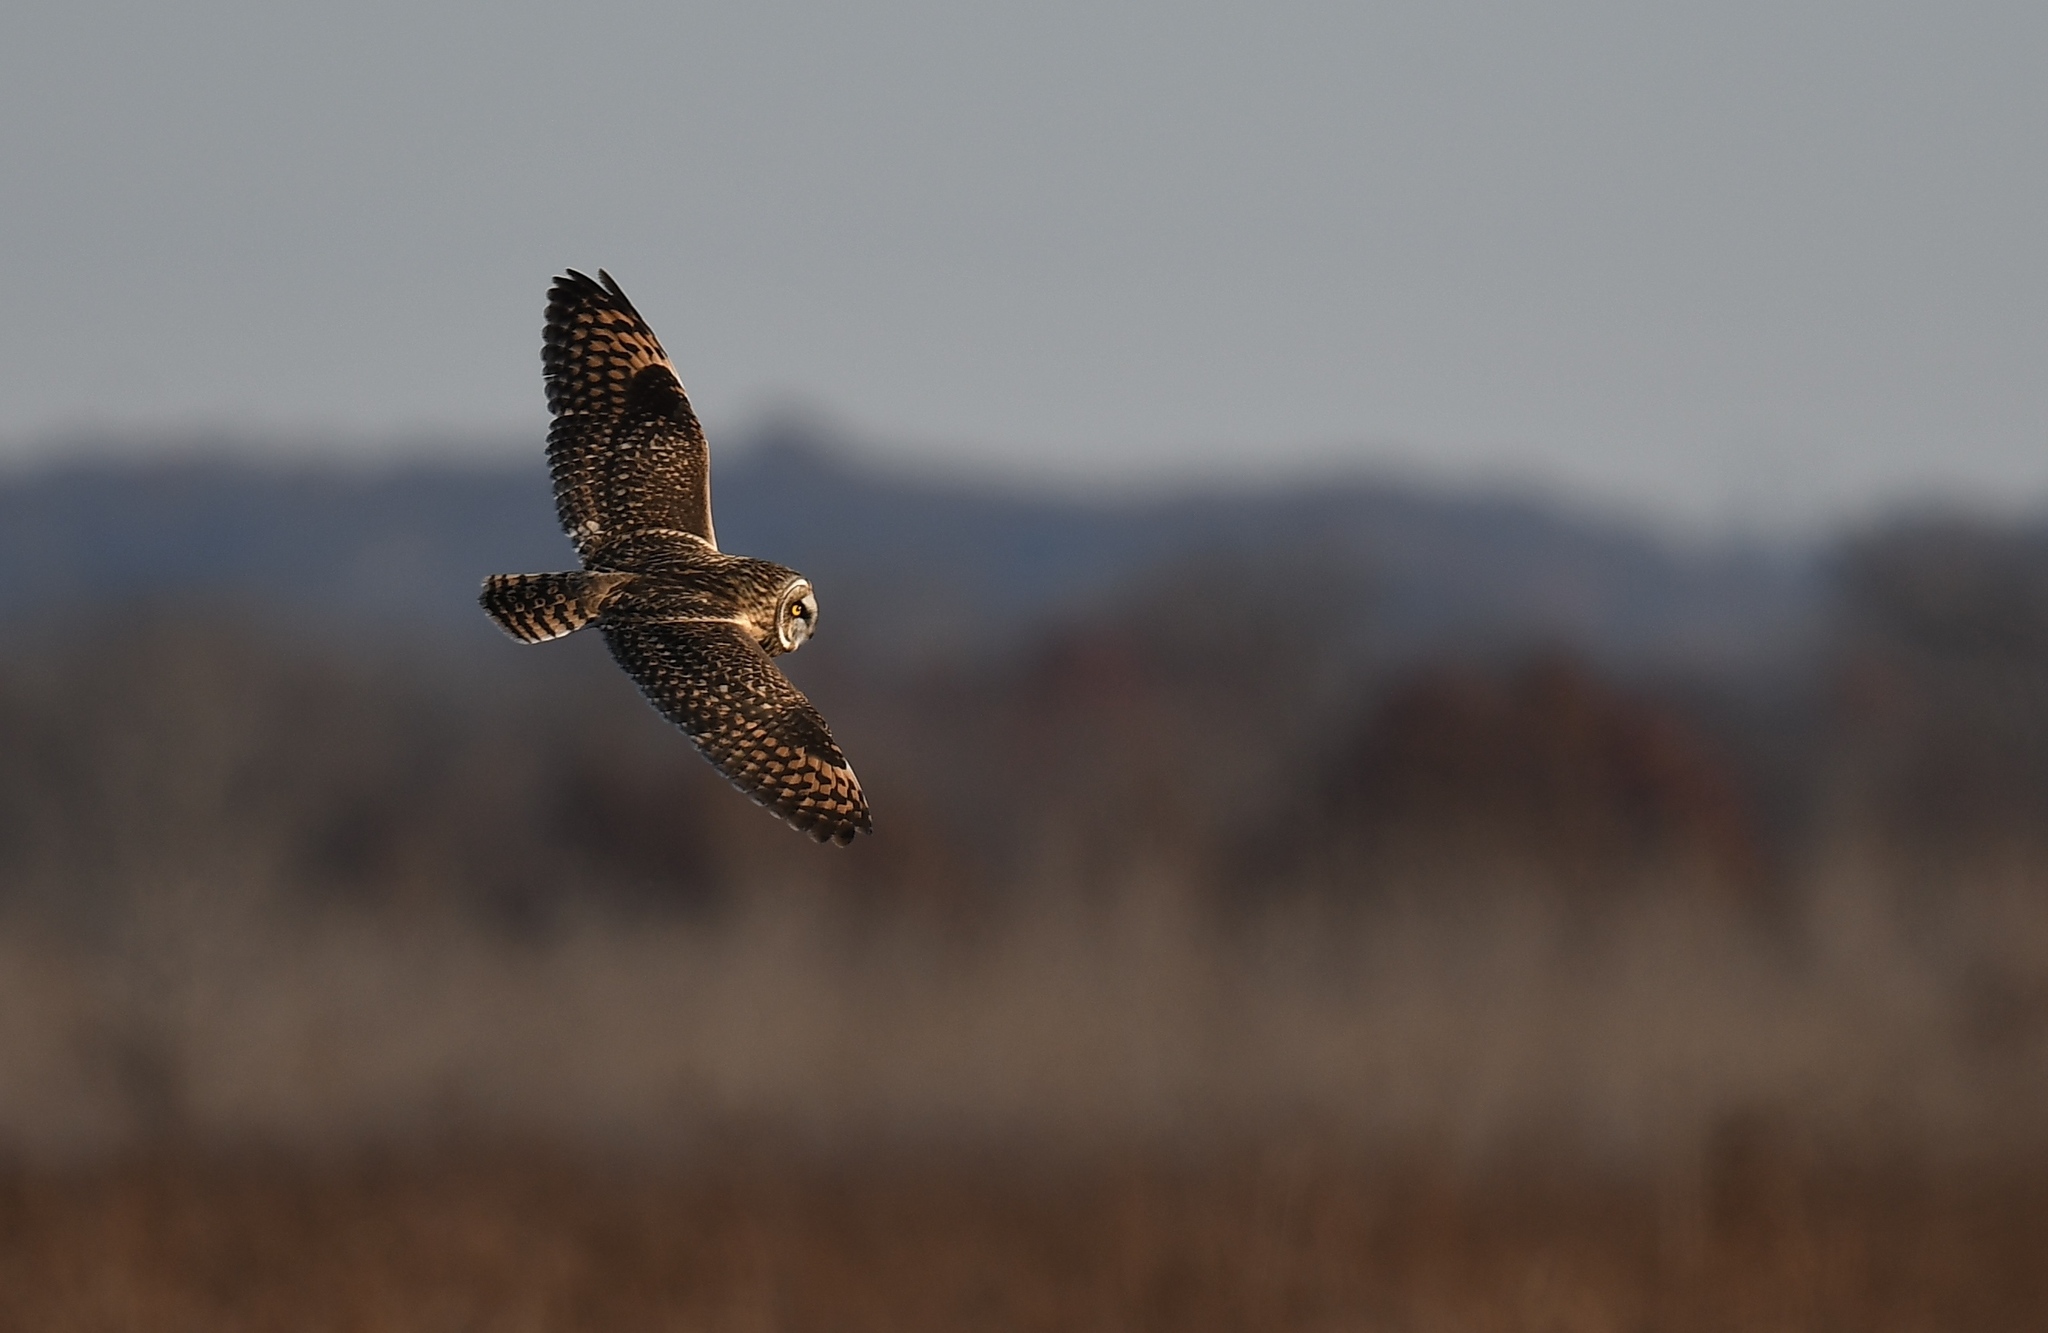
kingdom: Animalia
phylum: Chordata
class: Aves
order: Strigiformes
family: Strigidae
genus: Asio
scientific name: Asio flammeus
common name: Short-eared owl
